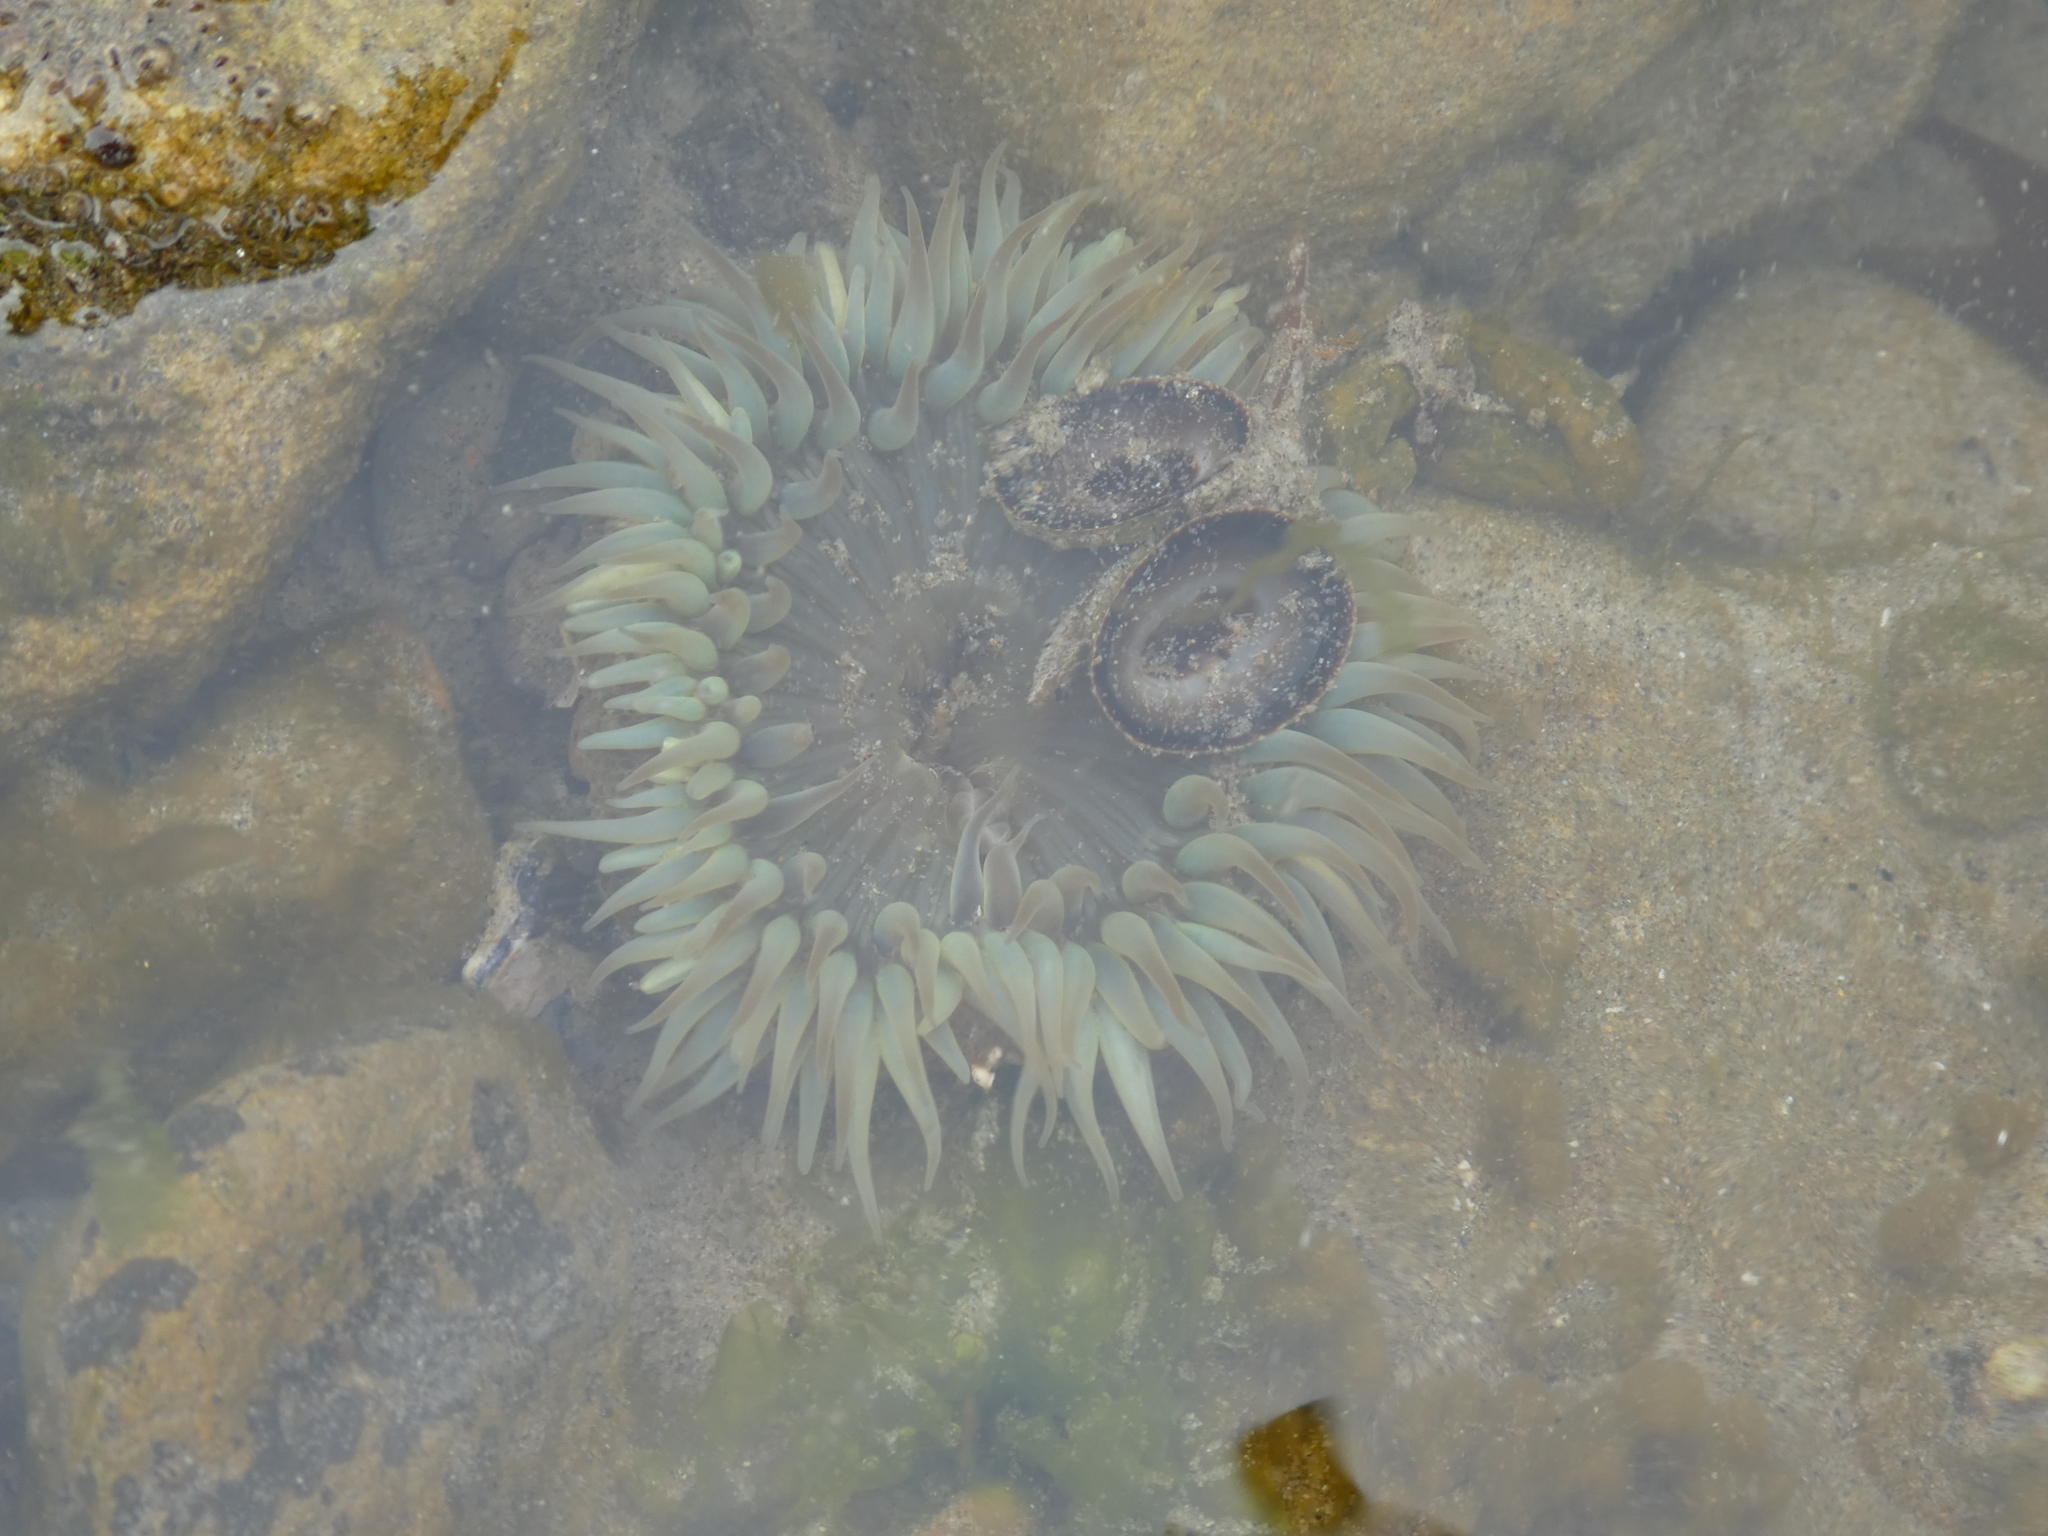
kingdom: Animalia
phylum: Cnidaria
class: Anthozoa
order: Actiniaria
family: Actiniidae
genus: Anthopleura
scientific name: Anthopleura sola
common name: Sun anemone
